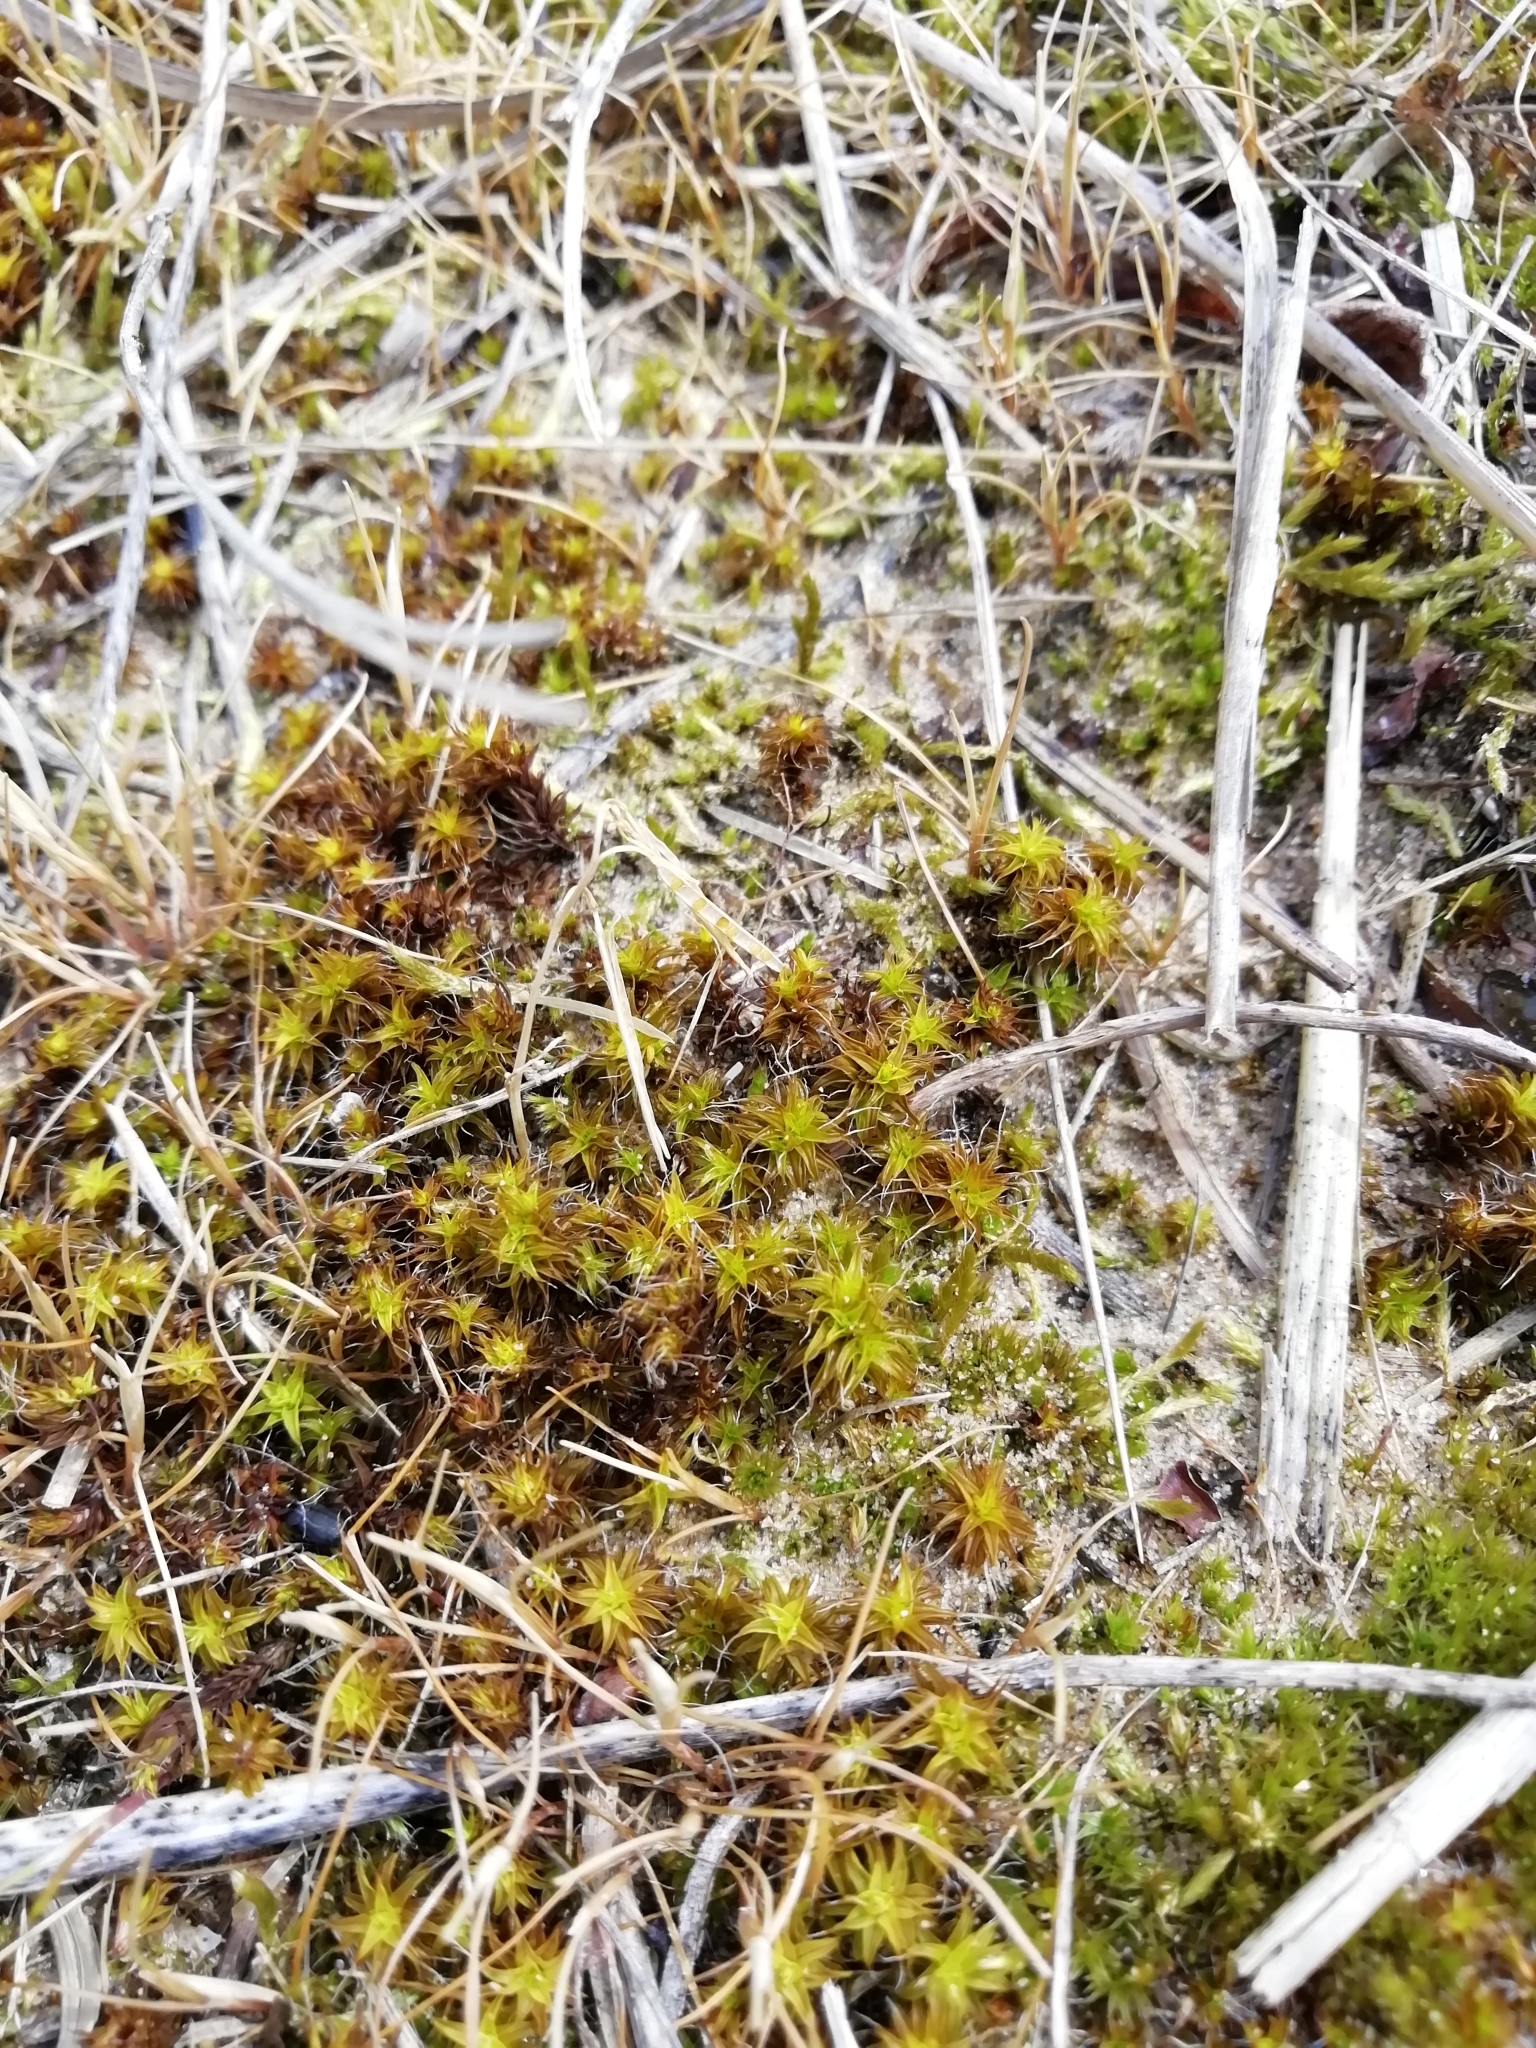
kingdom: Plantae
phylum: Bryophyta
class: Bryopsida
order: Pottiales
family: Pottiaceae
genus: Syntrichia
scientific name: Syntrichia ruralis
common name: Sidewalk screw moss
